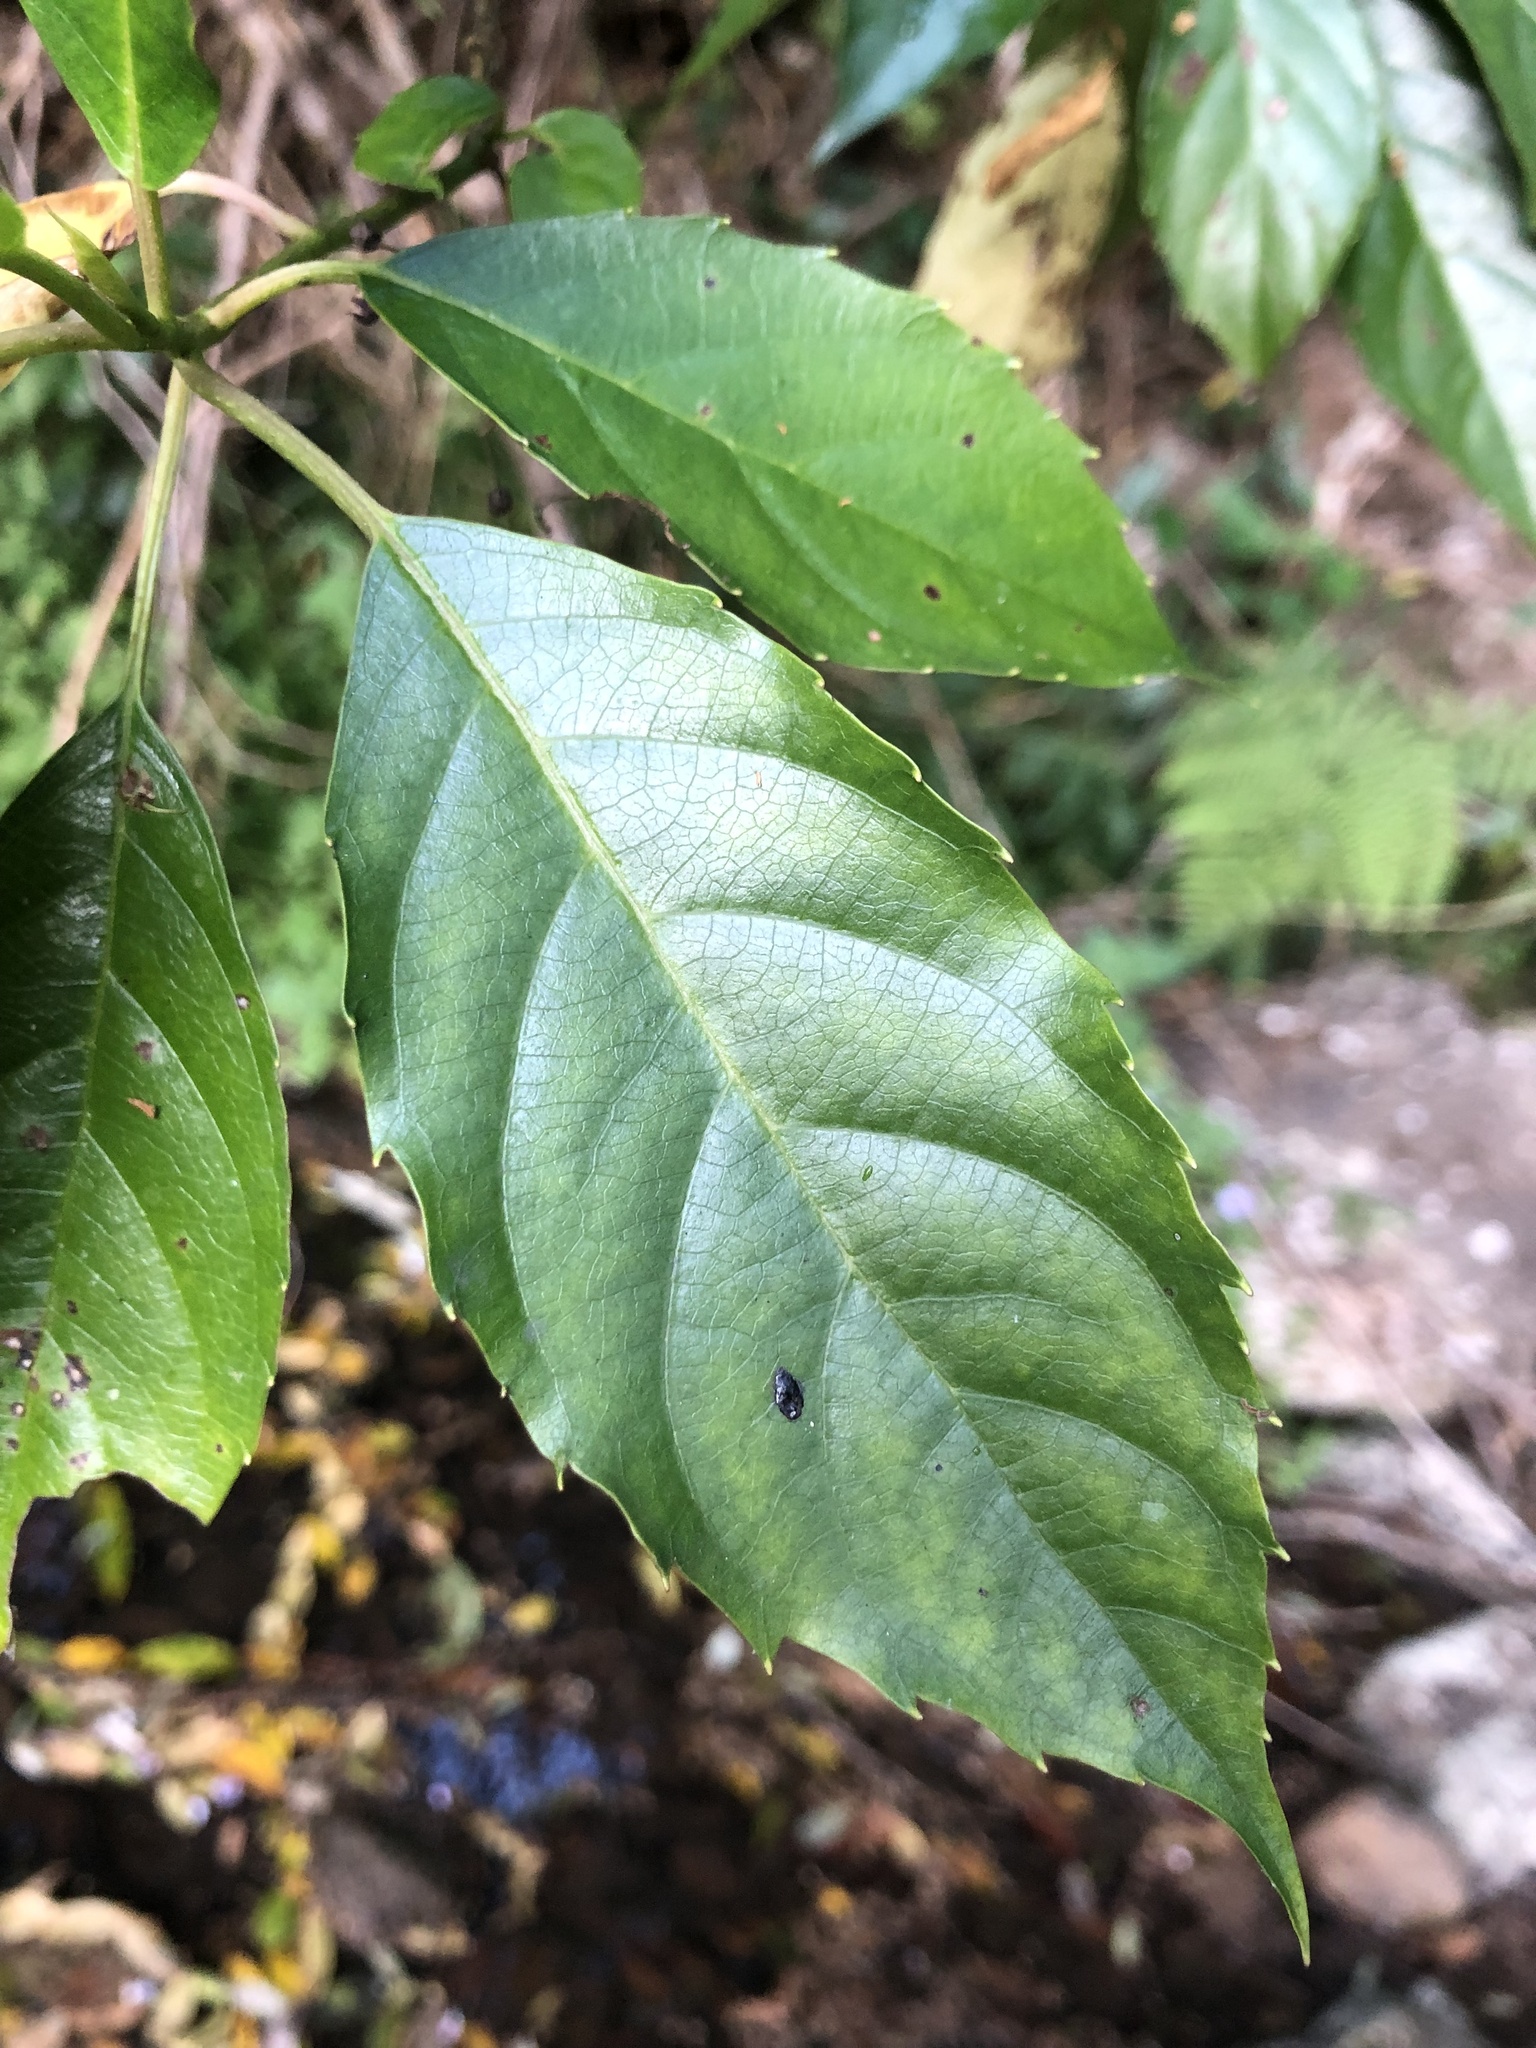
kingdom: Plantae
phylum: Tracheophyta
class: Magnoliopsida
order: Asterales
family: Rousseaceae
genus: Cuttsia
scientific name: Cuttsia viburnea
